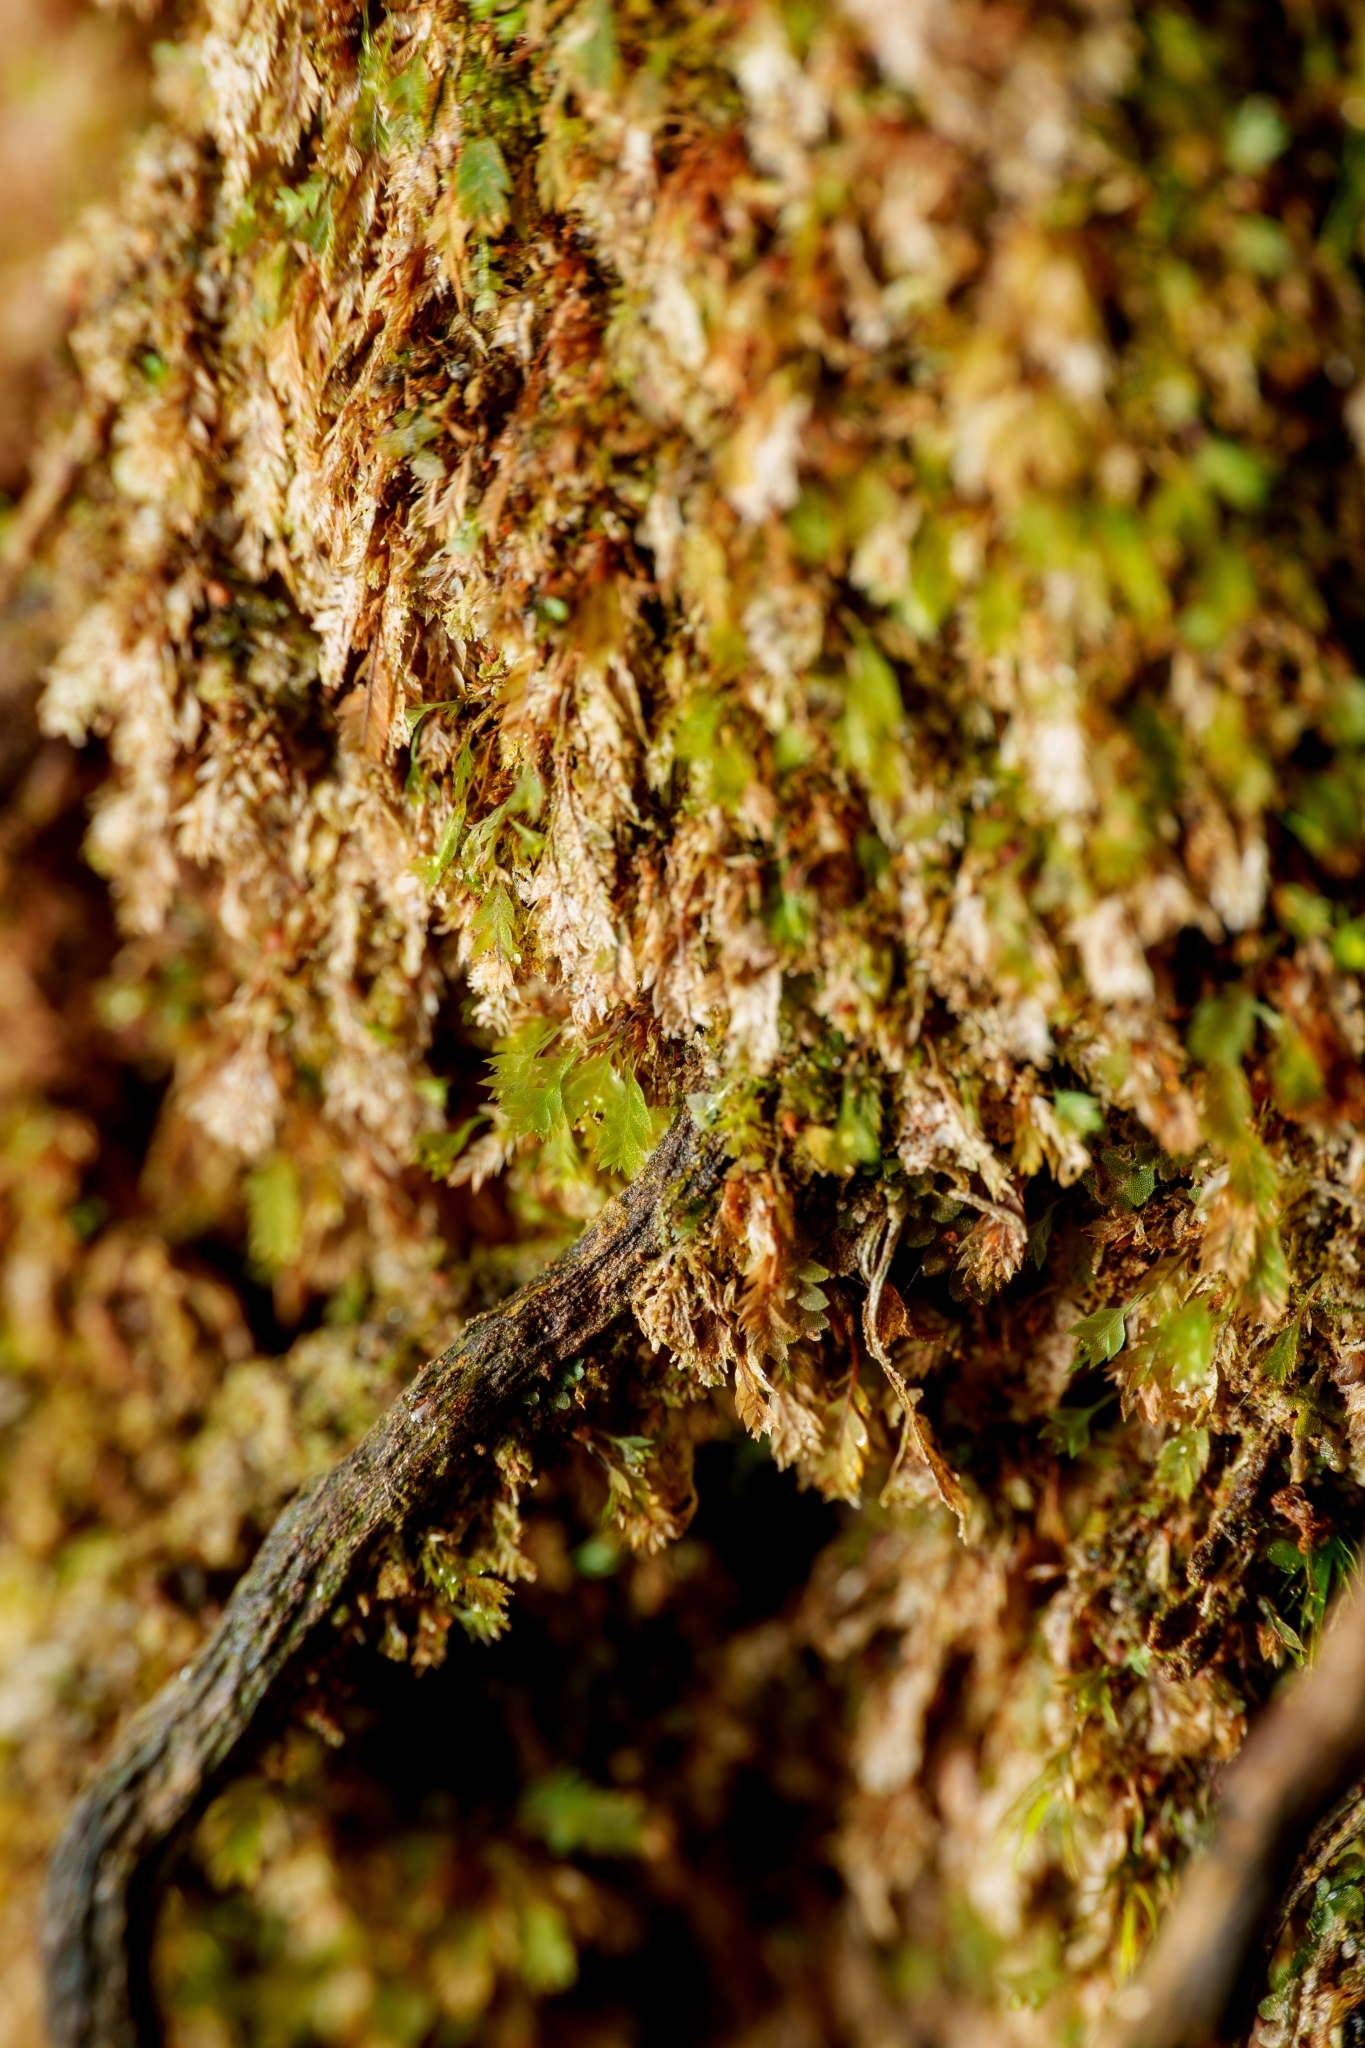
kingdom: Plantae
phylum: Bryophyta
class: Bryopsida
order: Dicranales
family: Schistostegaceae
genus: Schistostega
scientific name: Schistostega pennata
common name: Luminous moss
